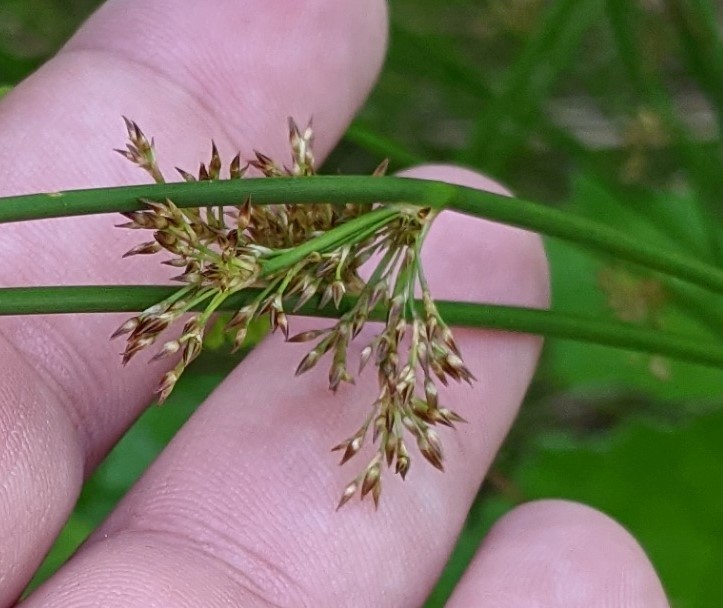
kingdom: Plantae
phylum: Tracheophyta
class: Liliopsida
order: Poales
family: Juncaceae
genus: Juncus
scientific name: Juncus effusus
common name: Soft rush
